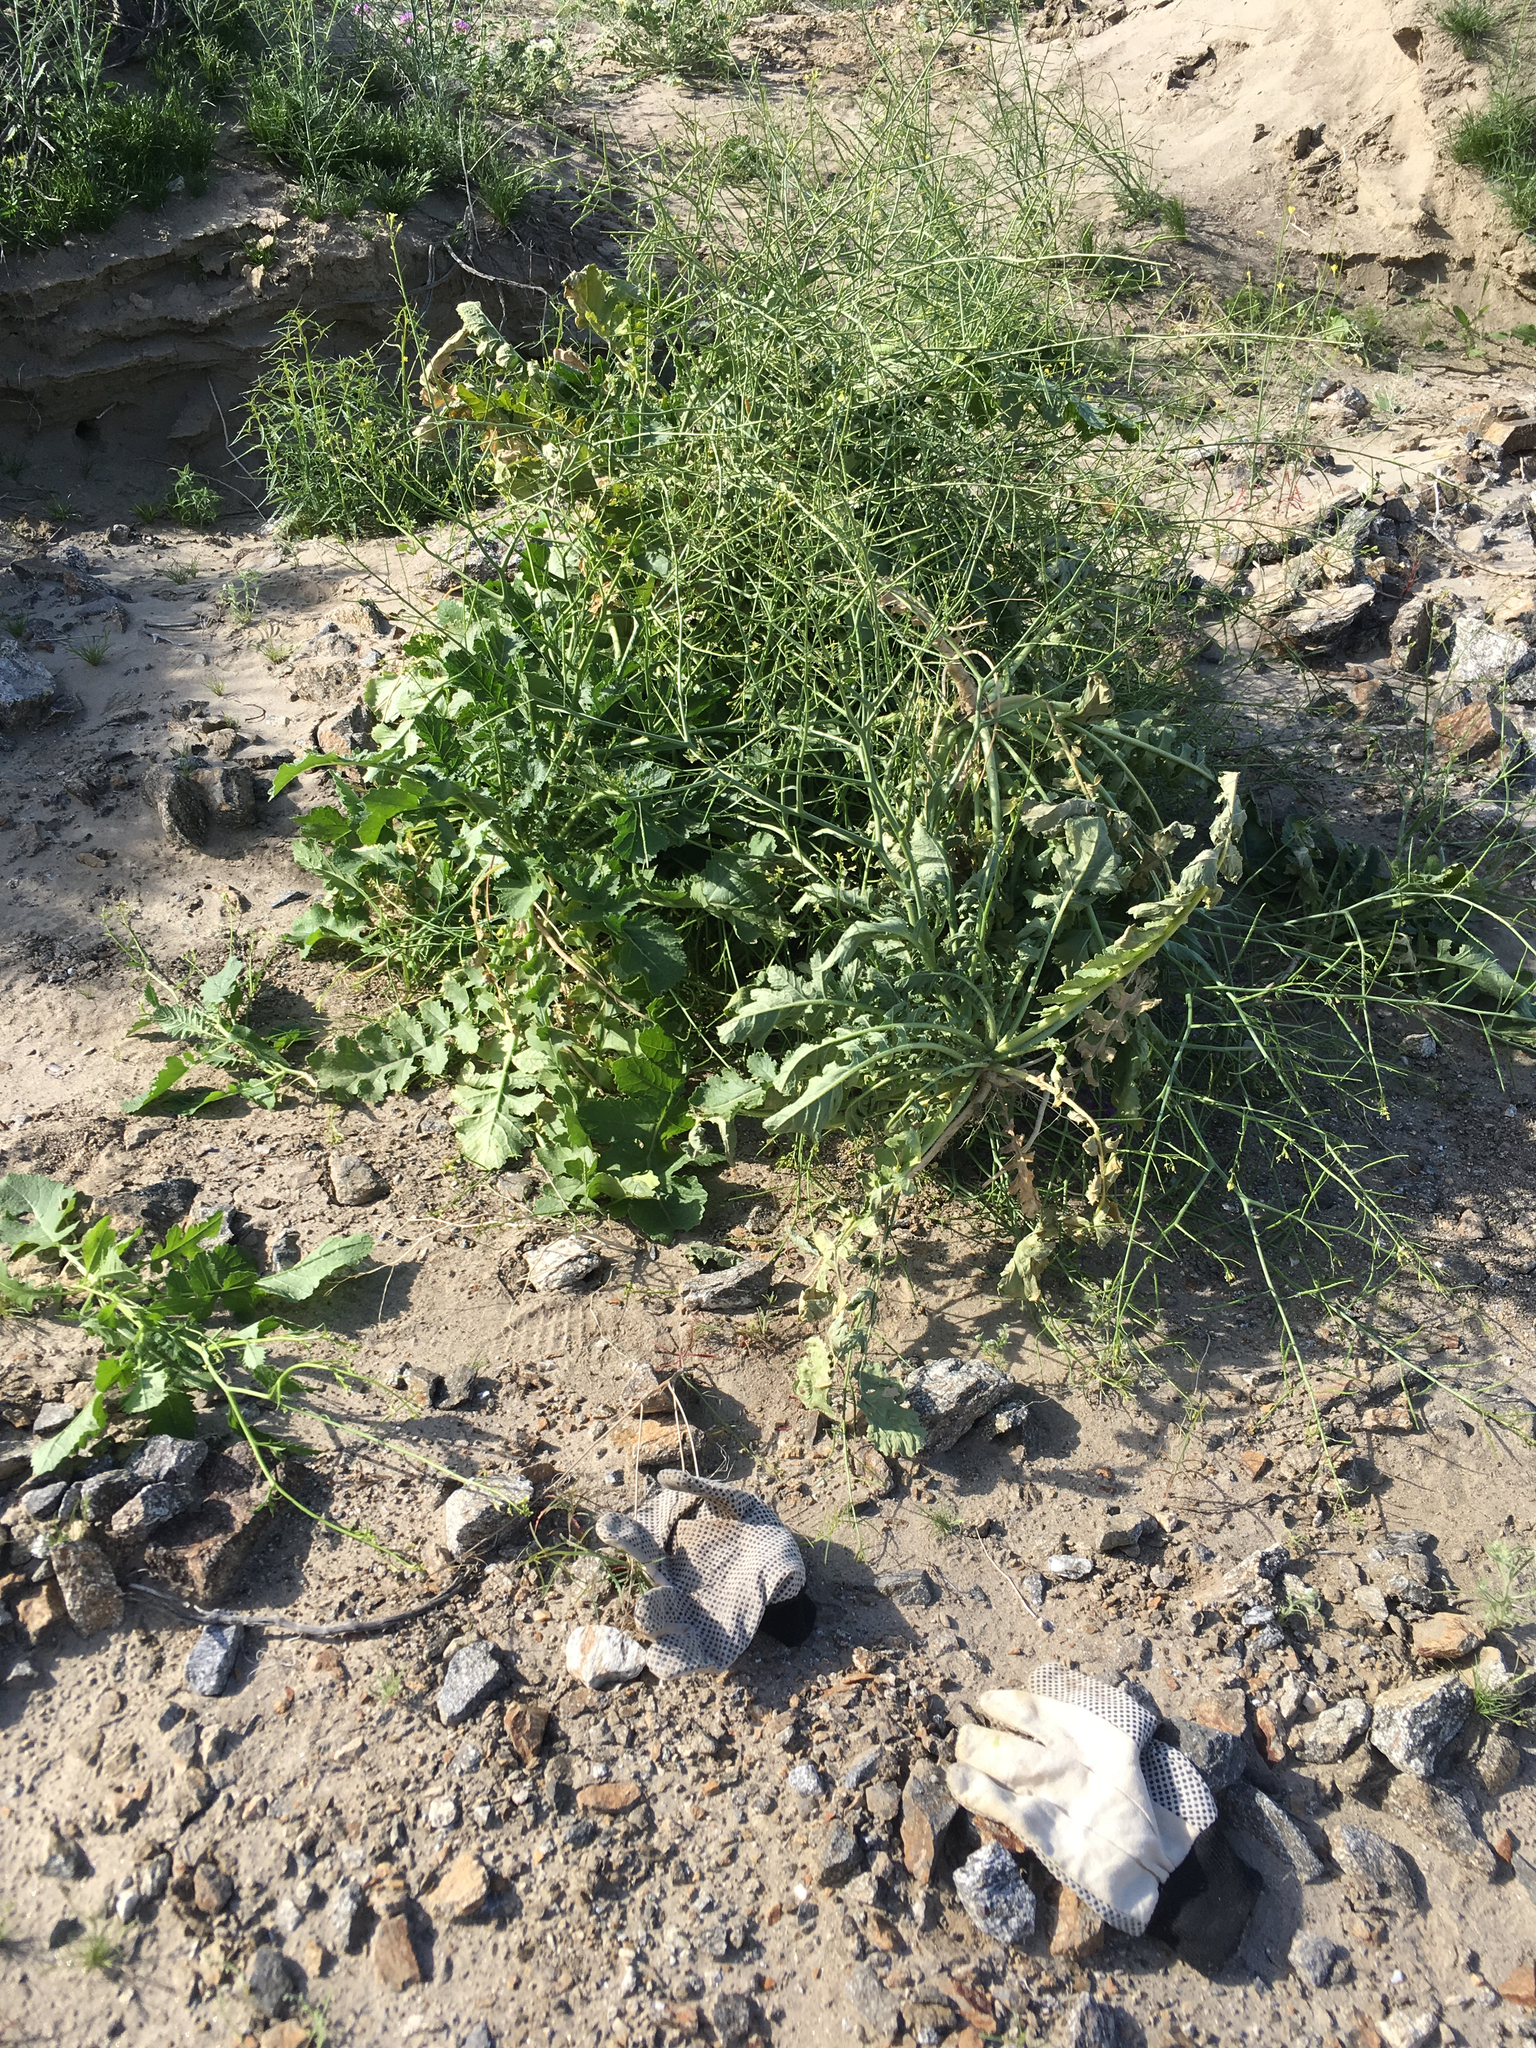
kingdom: Plantae
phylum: Tracheophyta
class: Magnoliopsida
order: Brassicales
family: Brassicaceae
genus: Brassica
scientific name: Brassica tournefortii
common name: Pale cabbage
